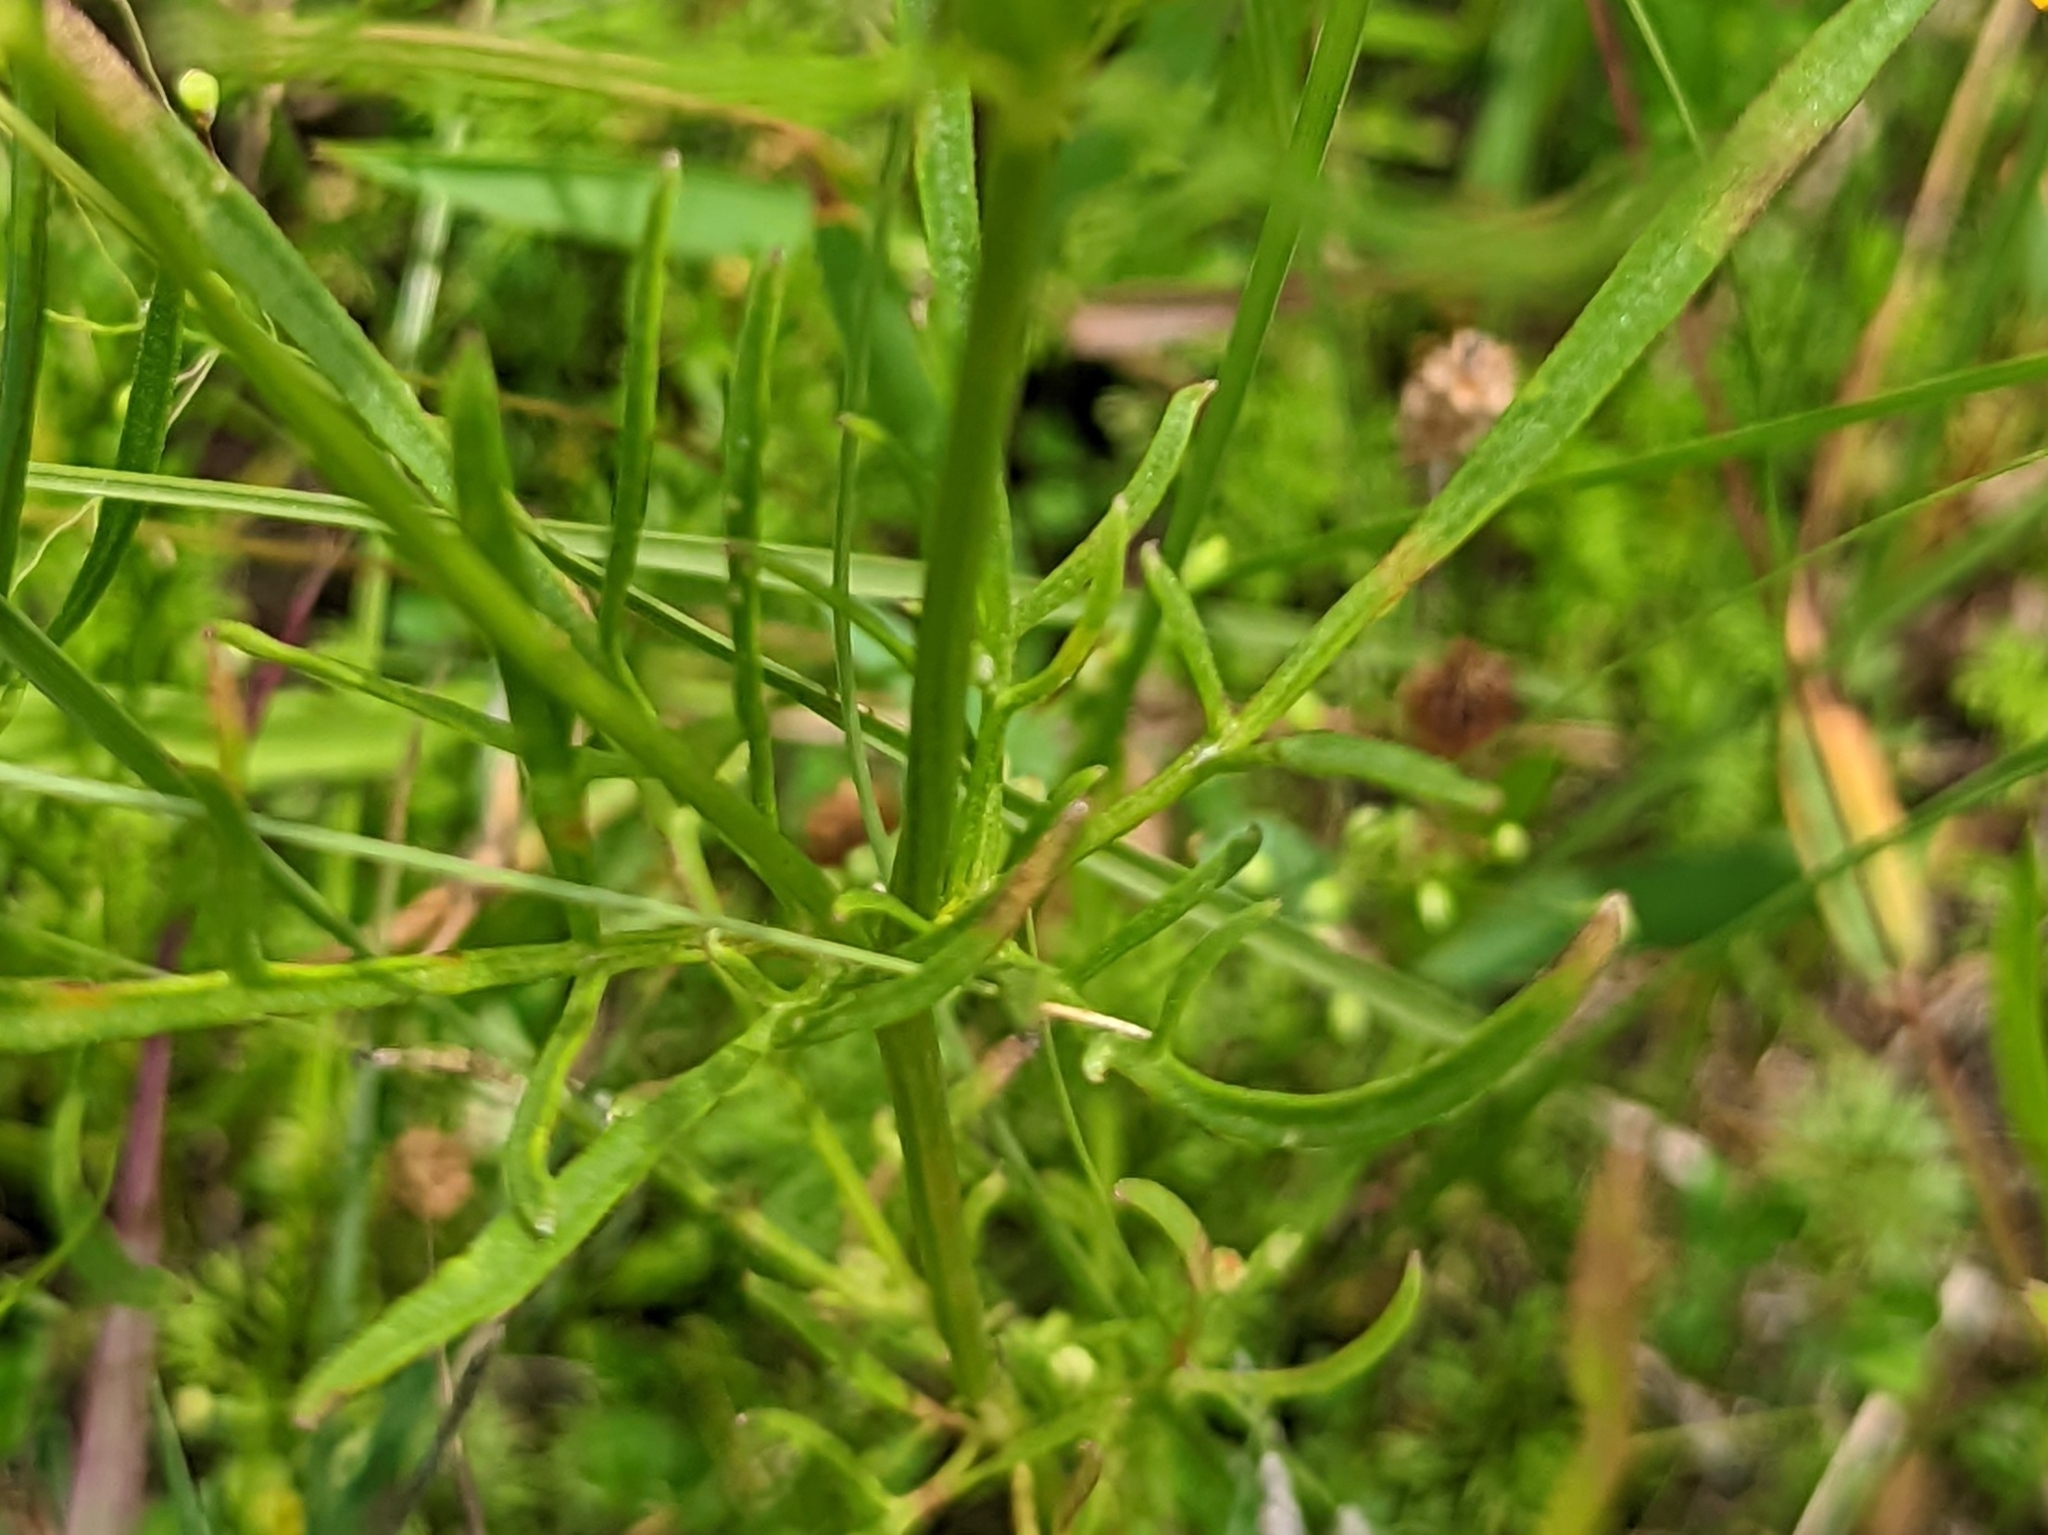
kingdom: Plantae
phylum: Tracheophyta
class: Magnoliopsida
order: Asterales
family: Asteraceae
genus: Coreopsis
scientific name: Coreopsis grandiflora
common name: Large-flowered tickseed
